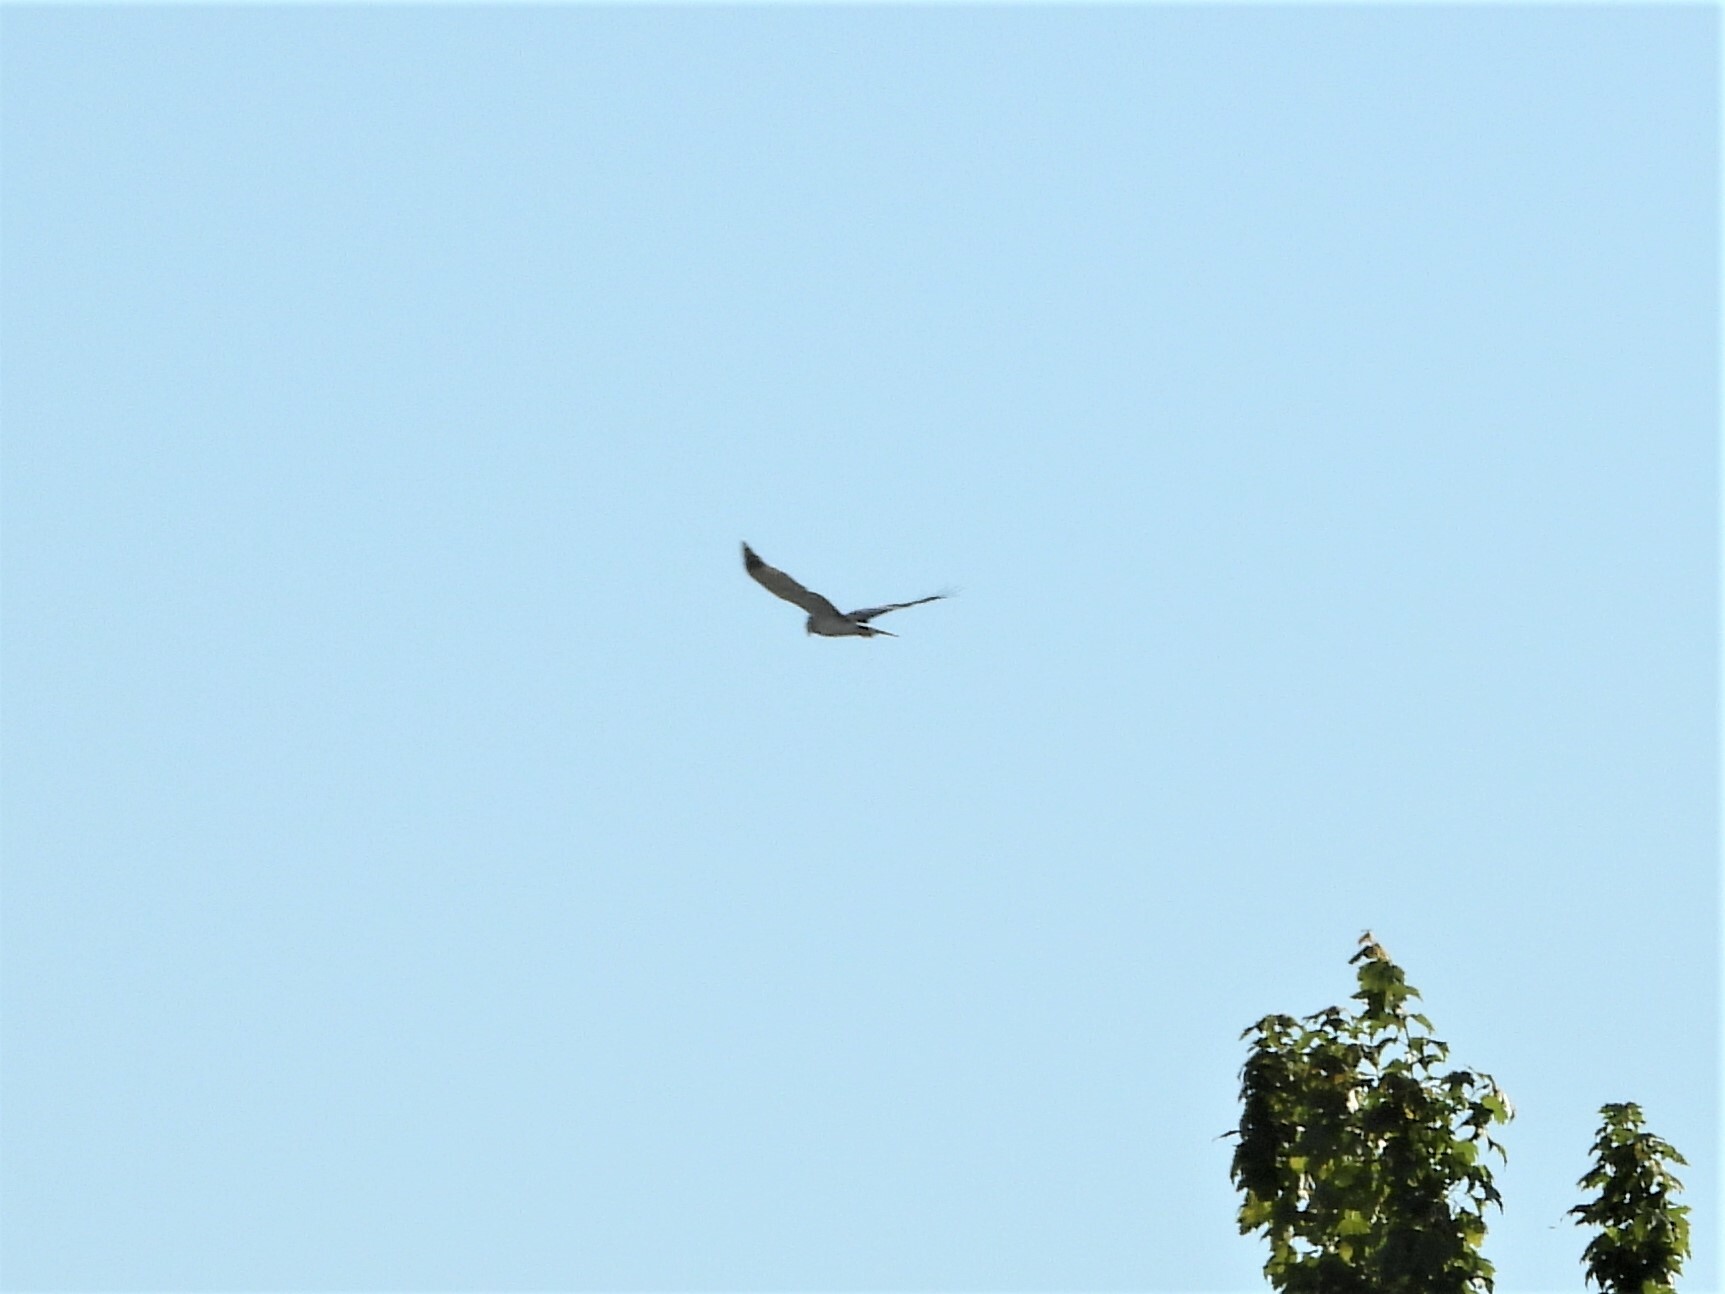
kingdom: Animalia
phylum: Chordata
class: Aves
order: Accipitriformes
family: Accipitridae
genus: Circus
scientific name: Circus cyaneus
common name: Hen harrier
